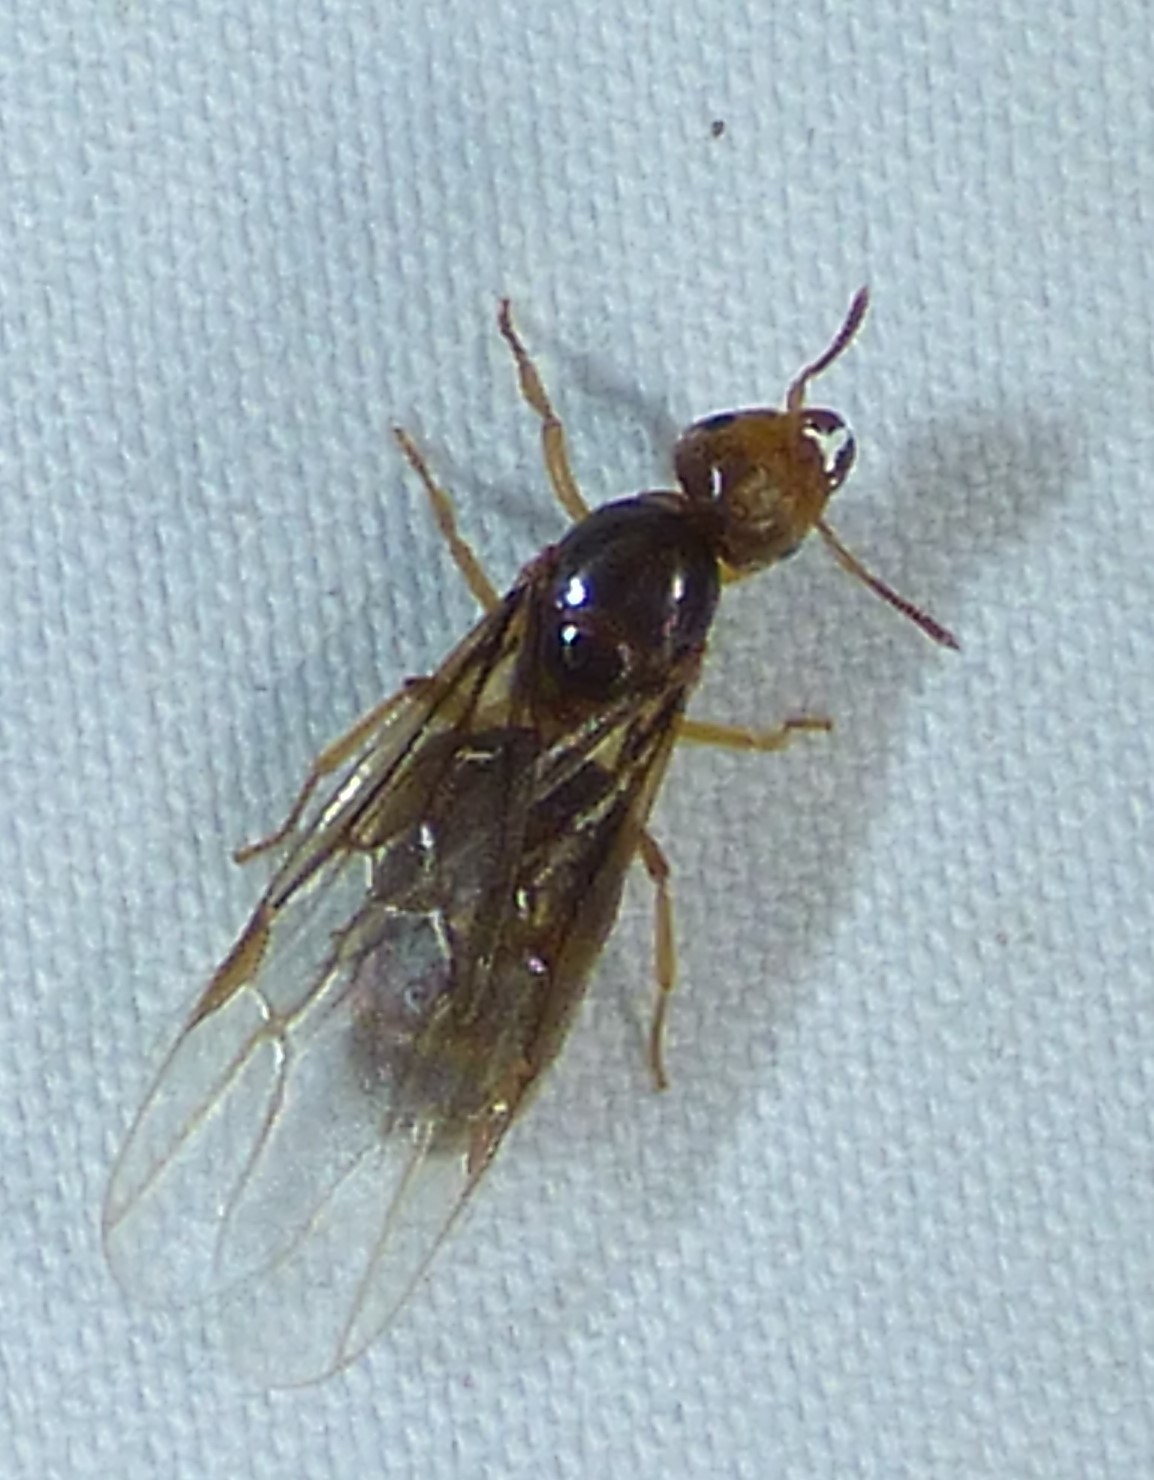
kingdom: Animalia
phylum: Arthropoda
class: Insecta
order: Hymenoptera
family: Formicidae
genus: Lasius
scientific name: Lasius
